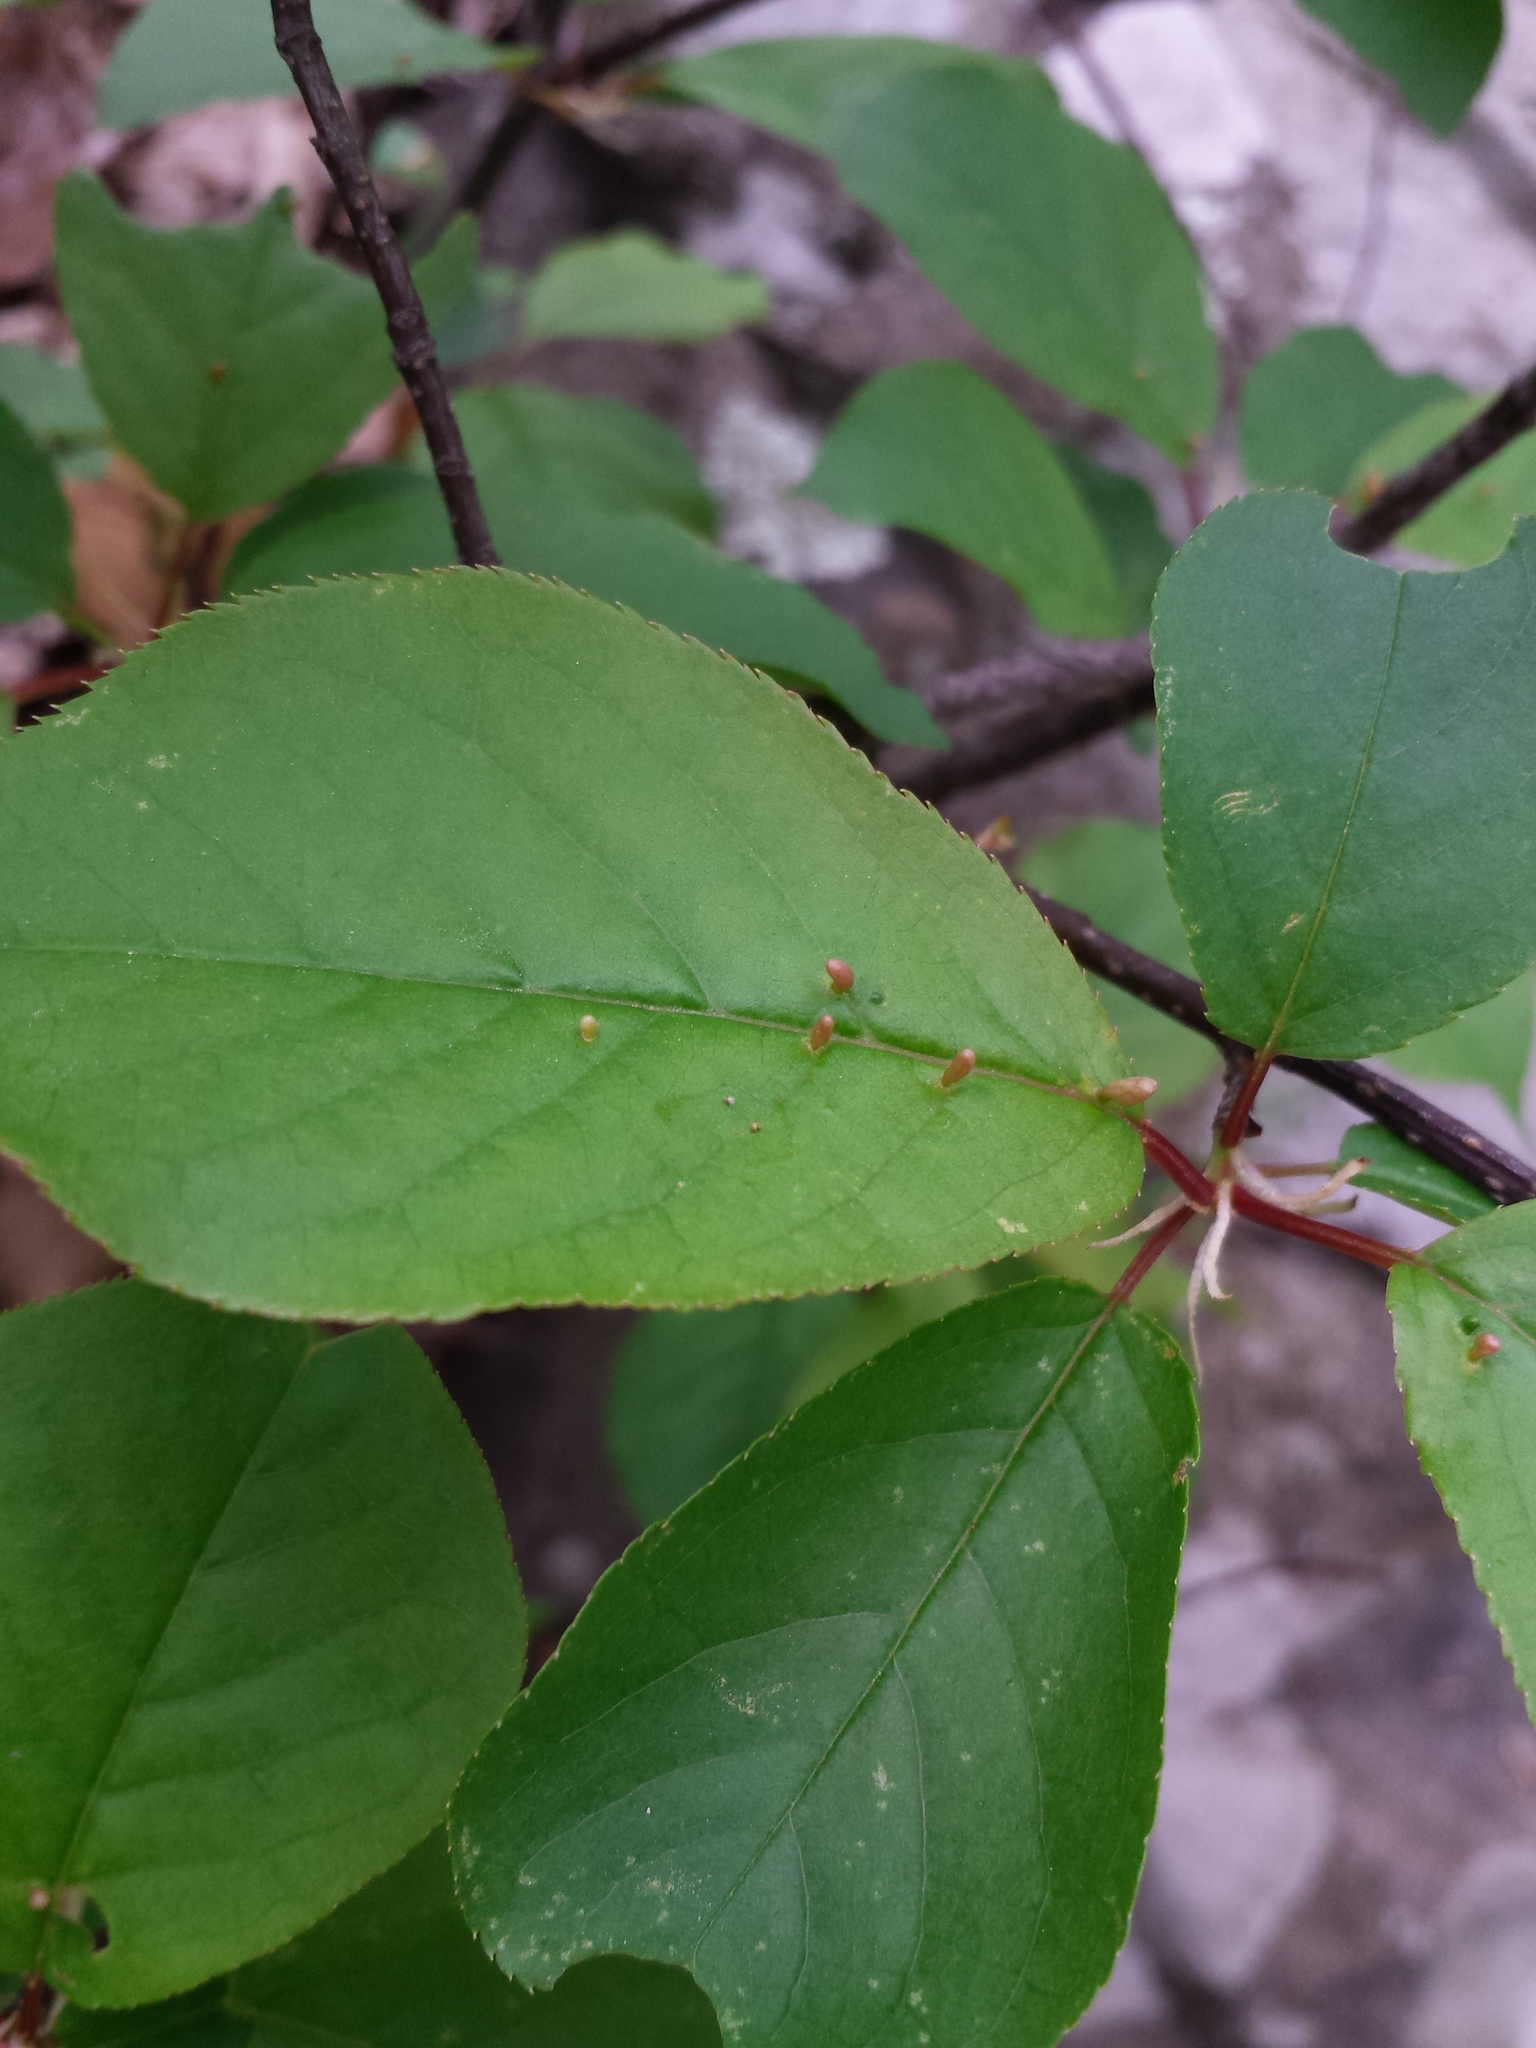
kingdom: Plantae
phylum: Tracheophyta
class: Magnoliopsida
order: Rosales
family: Rosaceae
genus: Prunus
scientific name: Prunus virginiana
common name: Chokecherry
